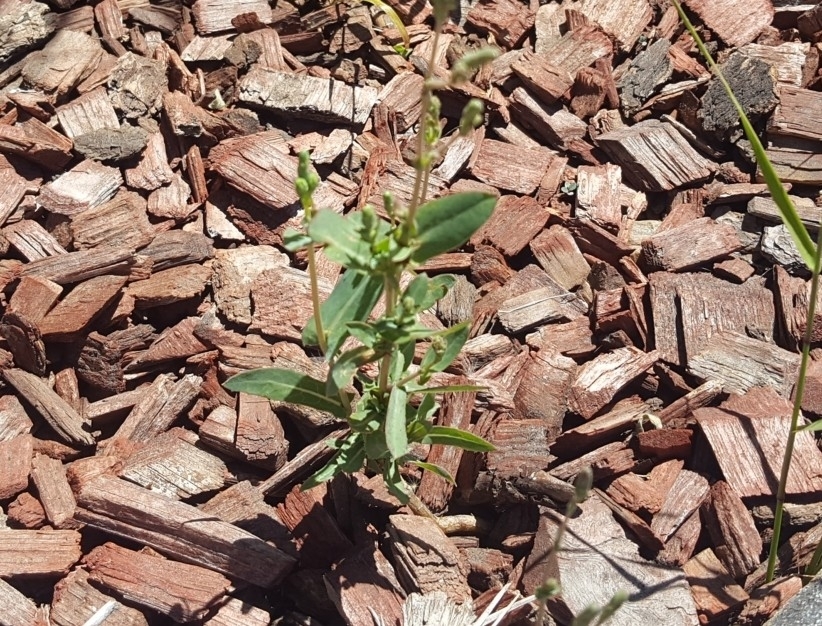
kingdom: Plantae
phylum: Tracheophyta
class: Magnoliopsida
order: Asterales
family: Asteraceae
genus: Lactuca
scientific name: Lactuca serriola
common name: Prickly lettuce
